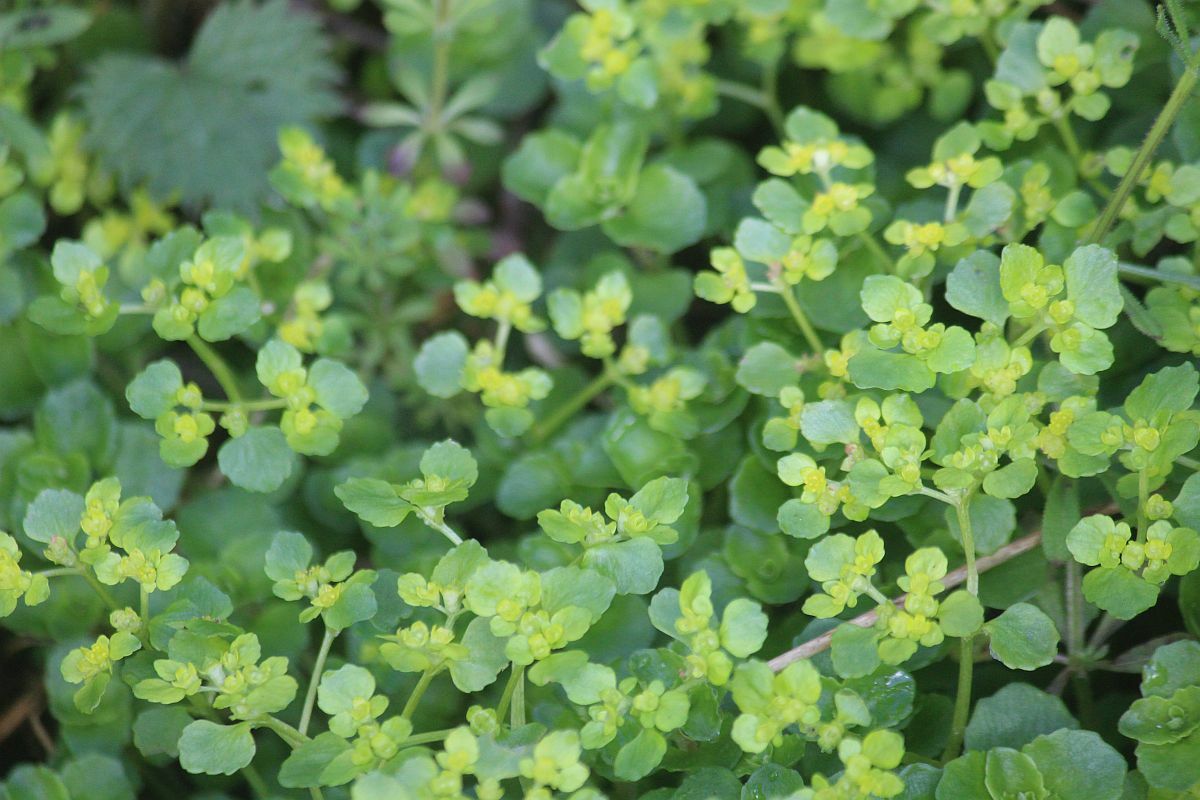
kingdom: Plantae
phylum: Tracheophyta
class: Magnoliopsida
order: Saxifragales
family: Saxifragaceae
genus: Chrysosplenium
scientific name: Chrysosplenium oppositifolium
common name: Opposite-leaved golden-saxifrage
